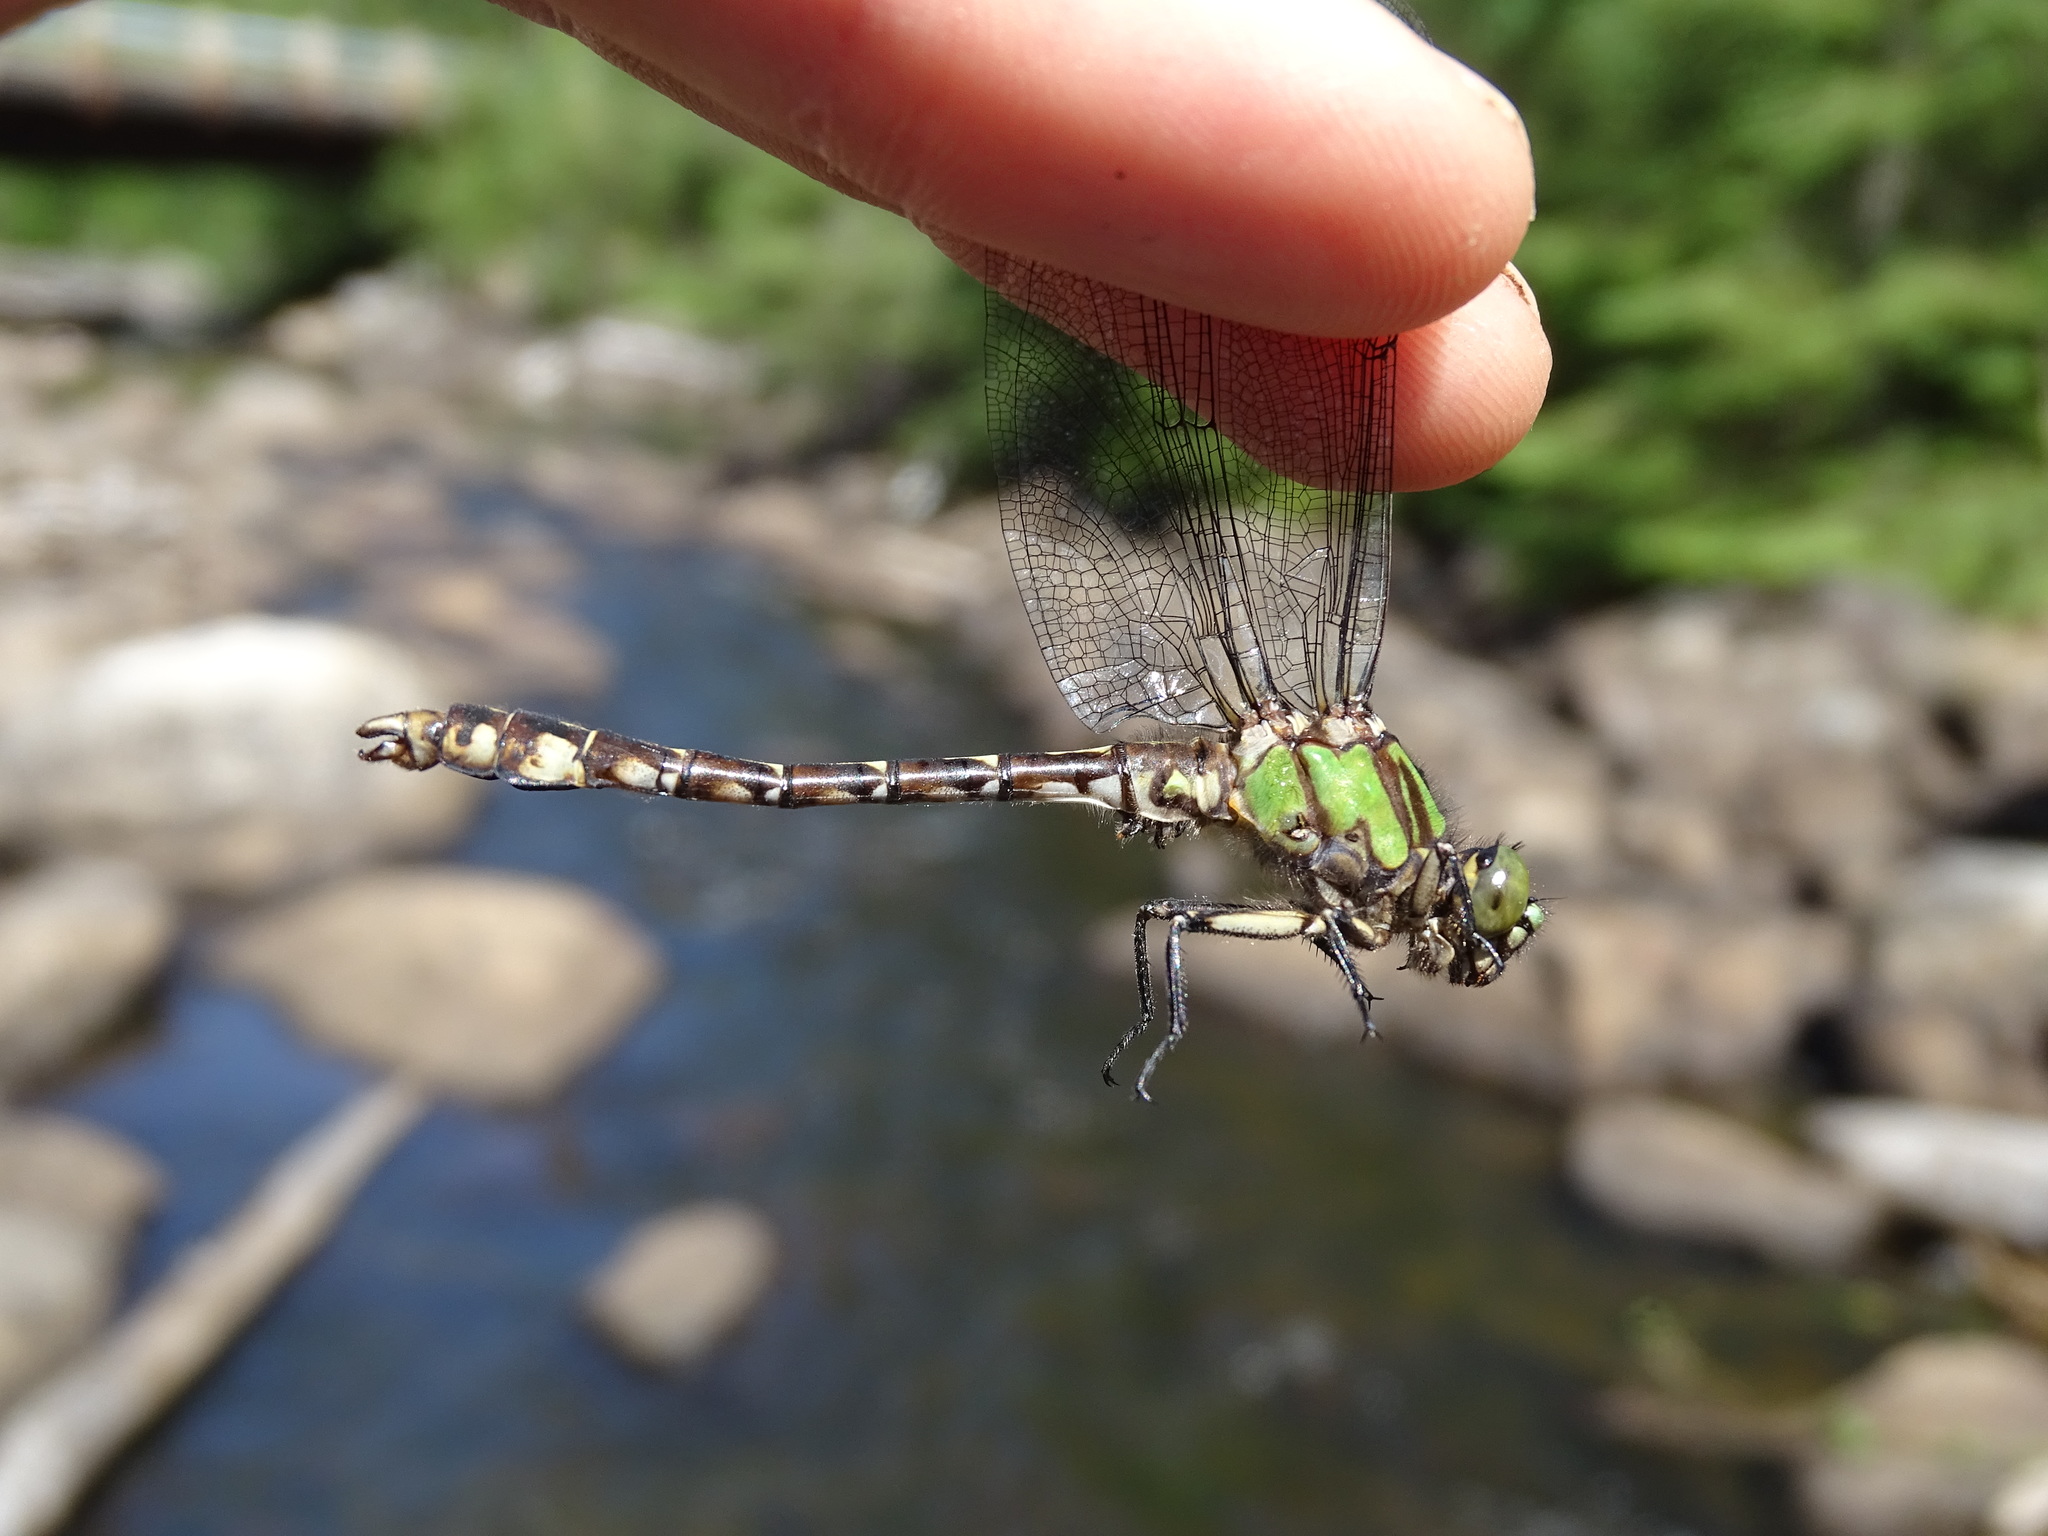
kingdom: Animalia
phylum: Arthropoda
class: Insecta
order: Odonata
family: Gomphidae
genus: Ophiogomphus
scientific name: Ophiogomphus colubrinus
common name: Boreal snaketail
